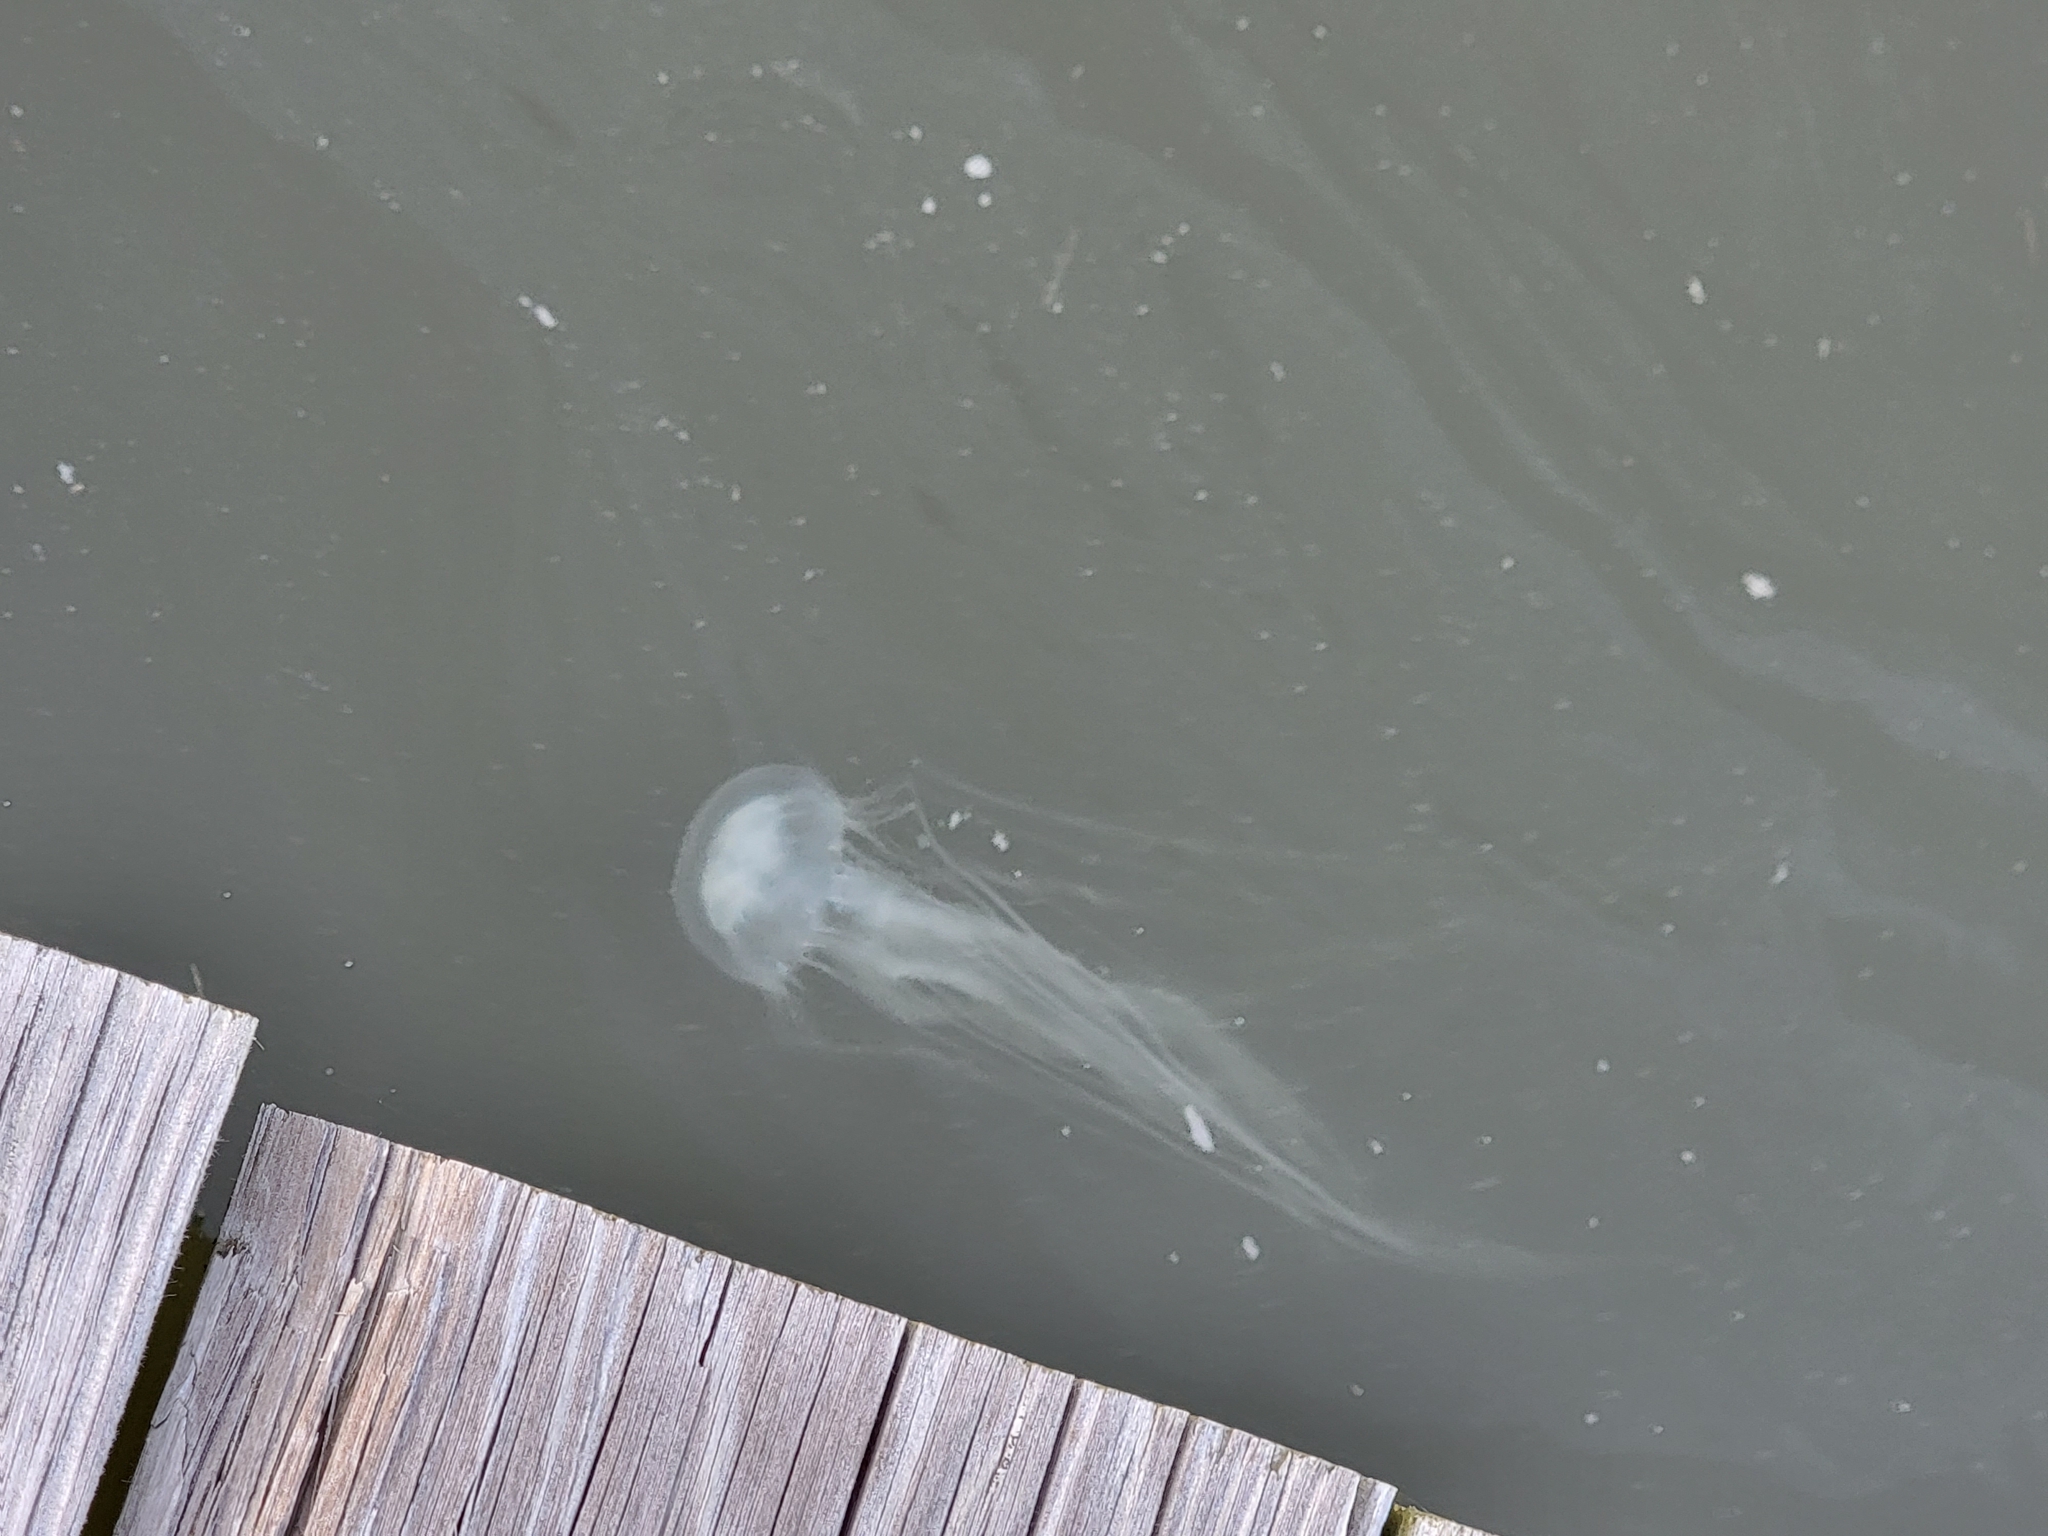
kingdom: Animalia
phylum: Cnidaria
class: Scyphozoa
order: Semaeostomeae
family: Pelagiidae
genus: Chrysaora
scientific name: Chrysaora chesapeakei
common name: Bay nettle
